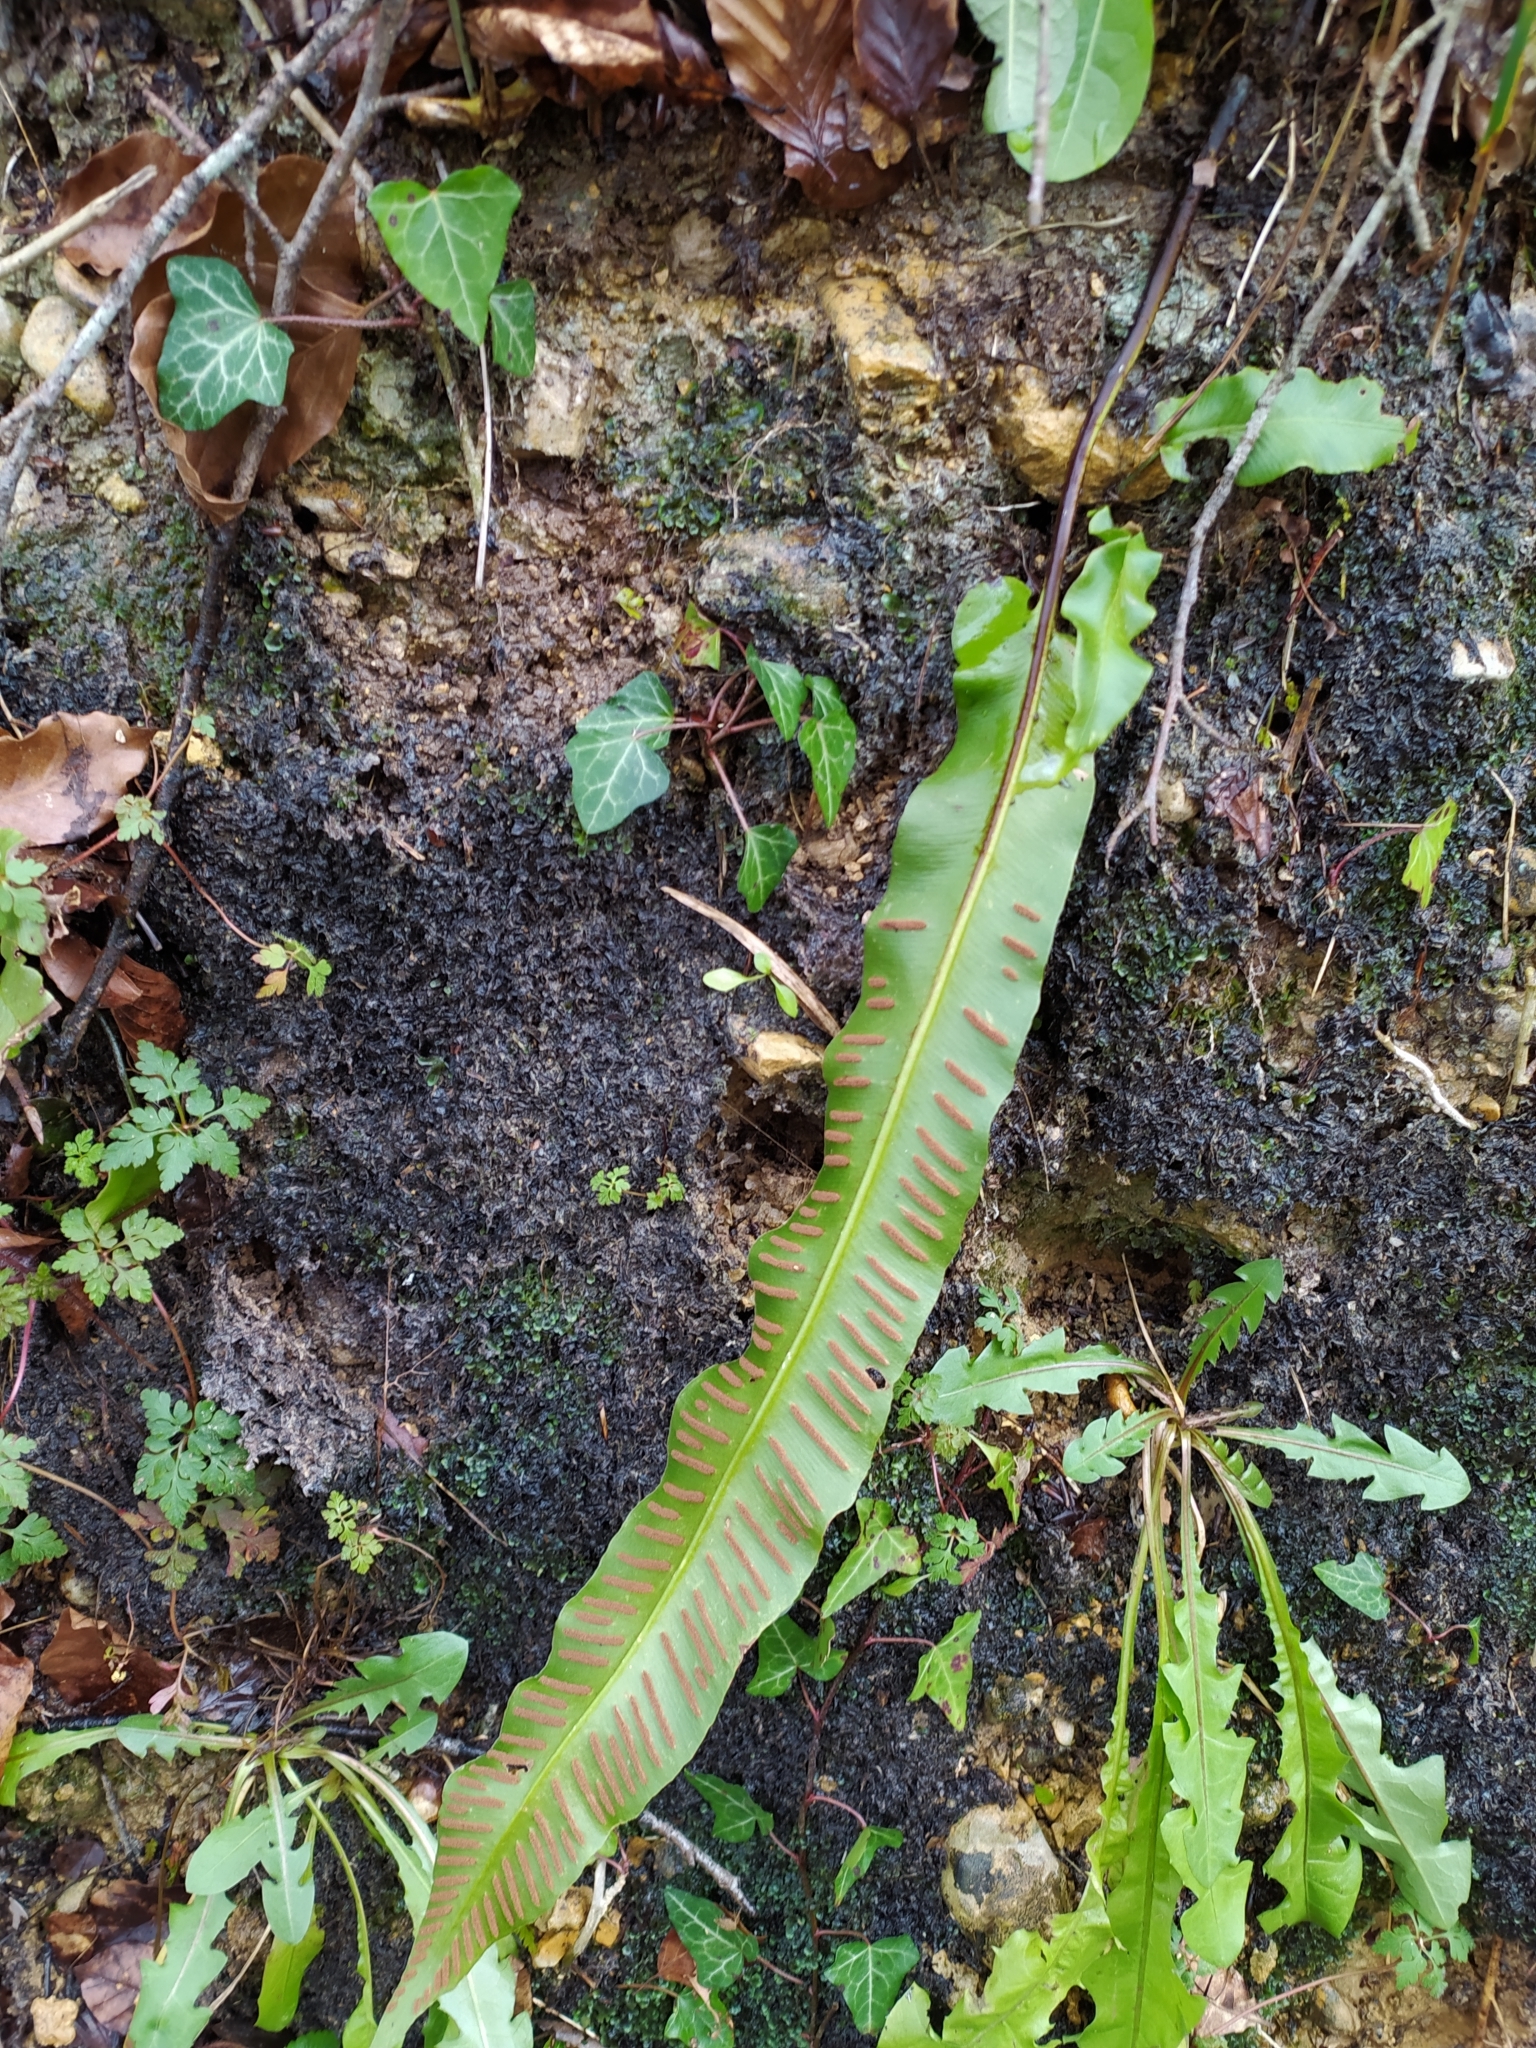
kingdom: Plantae
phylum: Tracheophyta
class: Polypodiopsida
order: Polypodiales
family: Aspleniaceae
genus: Asplenium
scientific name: Asplenium scolopendrium
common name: Hart's-tongue fern
